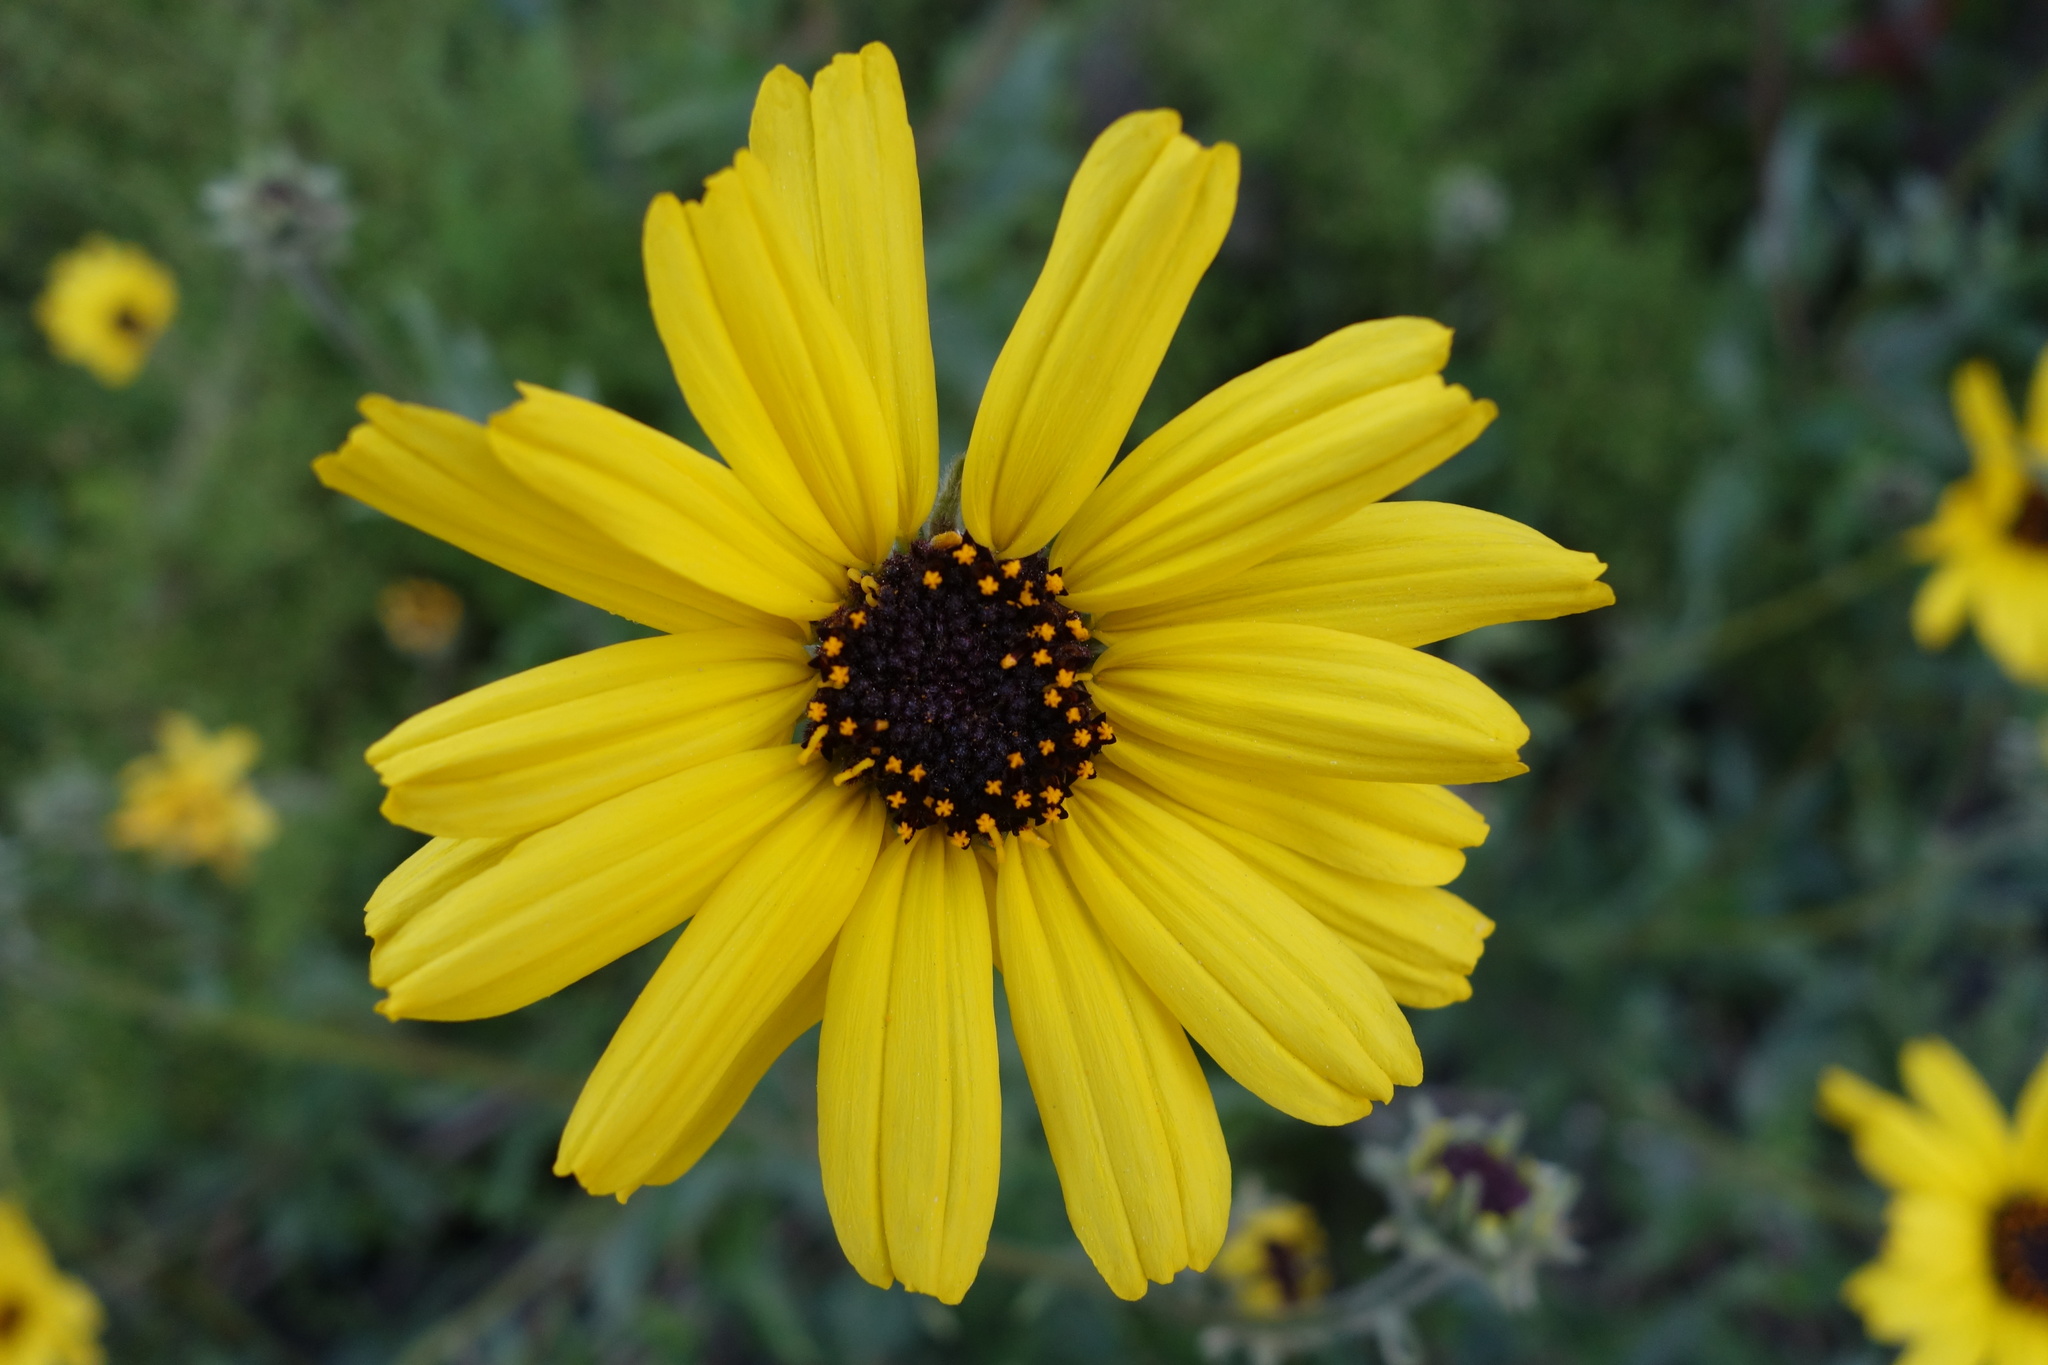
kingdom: Plantae
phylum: Tracheophyta
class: Magnoliopsida
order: Asterales
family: Asteraceae
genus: Encelia
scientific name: Encelia californica
